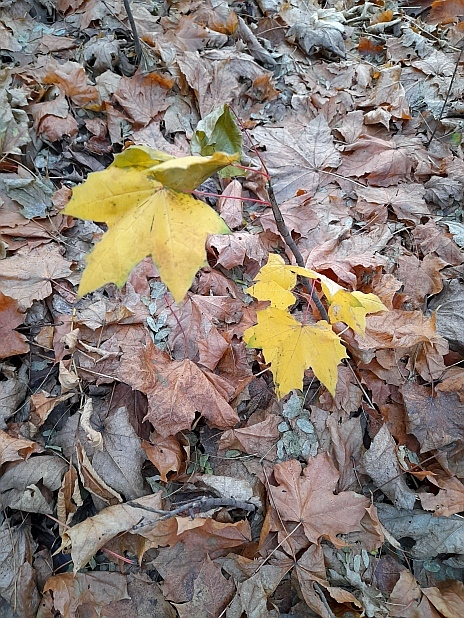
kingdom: Plantae
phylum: Tracheophyta
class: Magnoliopsida
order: Sapindales
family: Sapindaceae
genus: Acer
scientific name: Acer platanoides
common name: Norway maple
